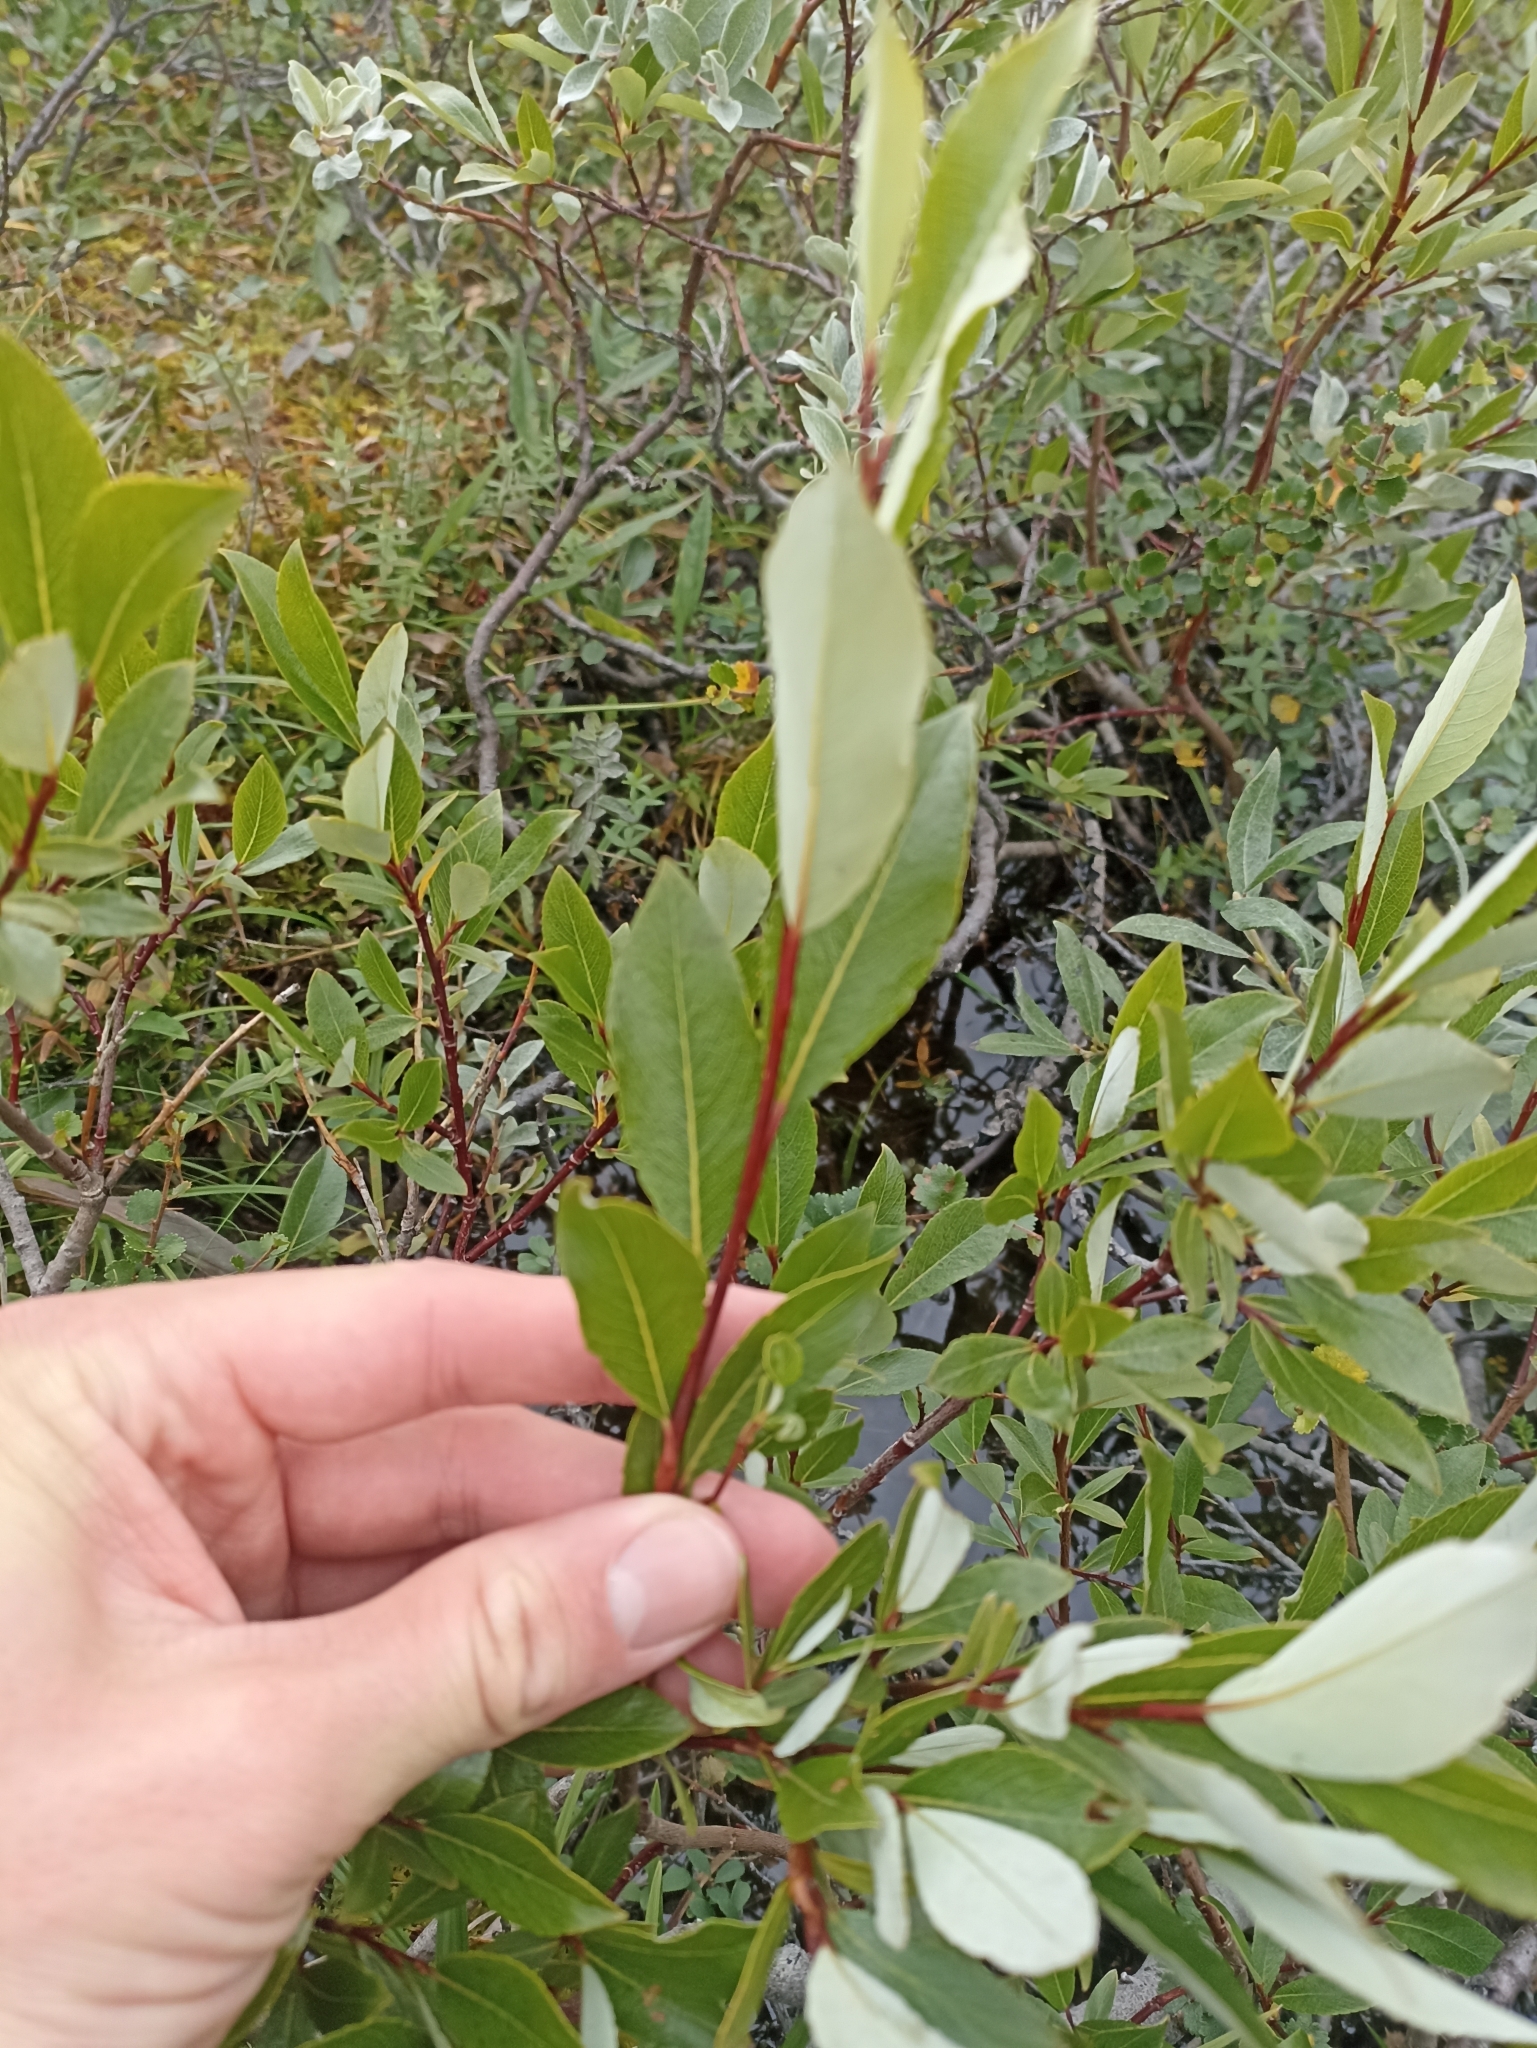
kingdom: Plantae
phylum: Tracheophyta
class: Magnoliopsida
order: Malpighiales
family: Salicaceae
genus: Salix
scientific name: Salix phylicifolia
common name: Tea-leaved willow
